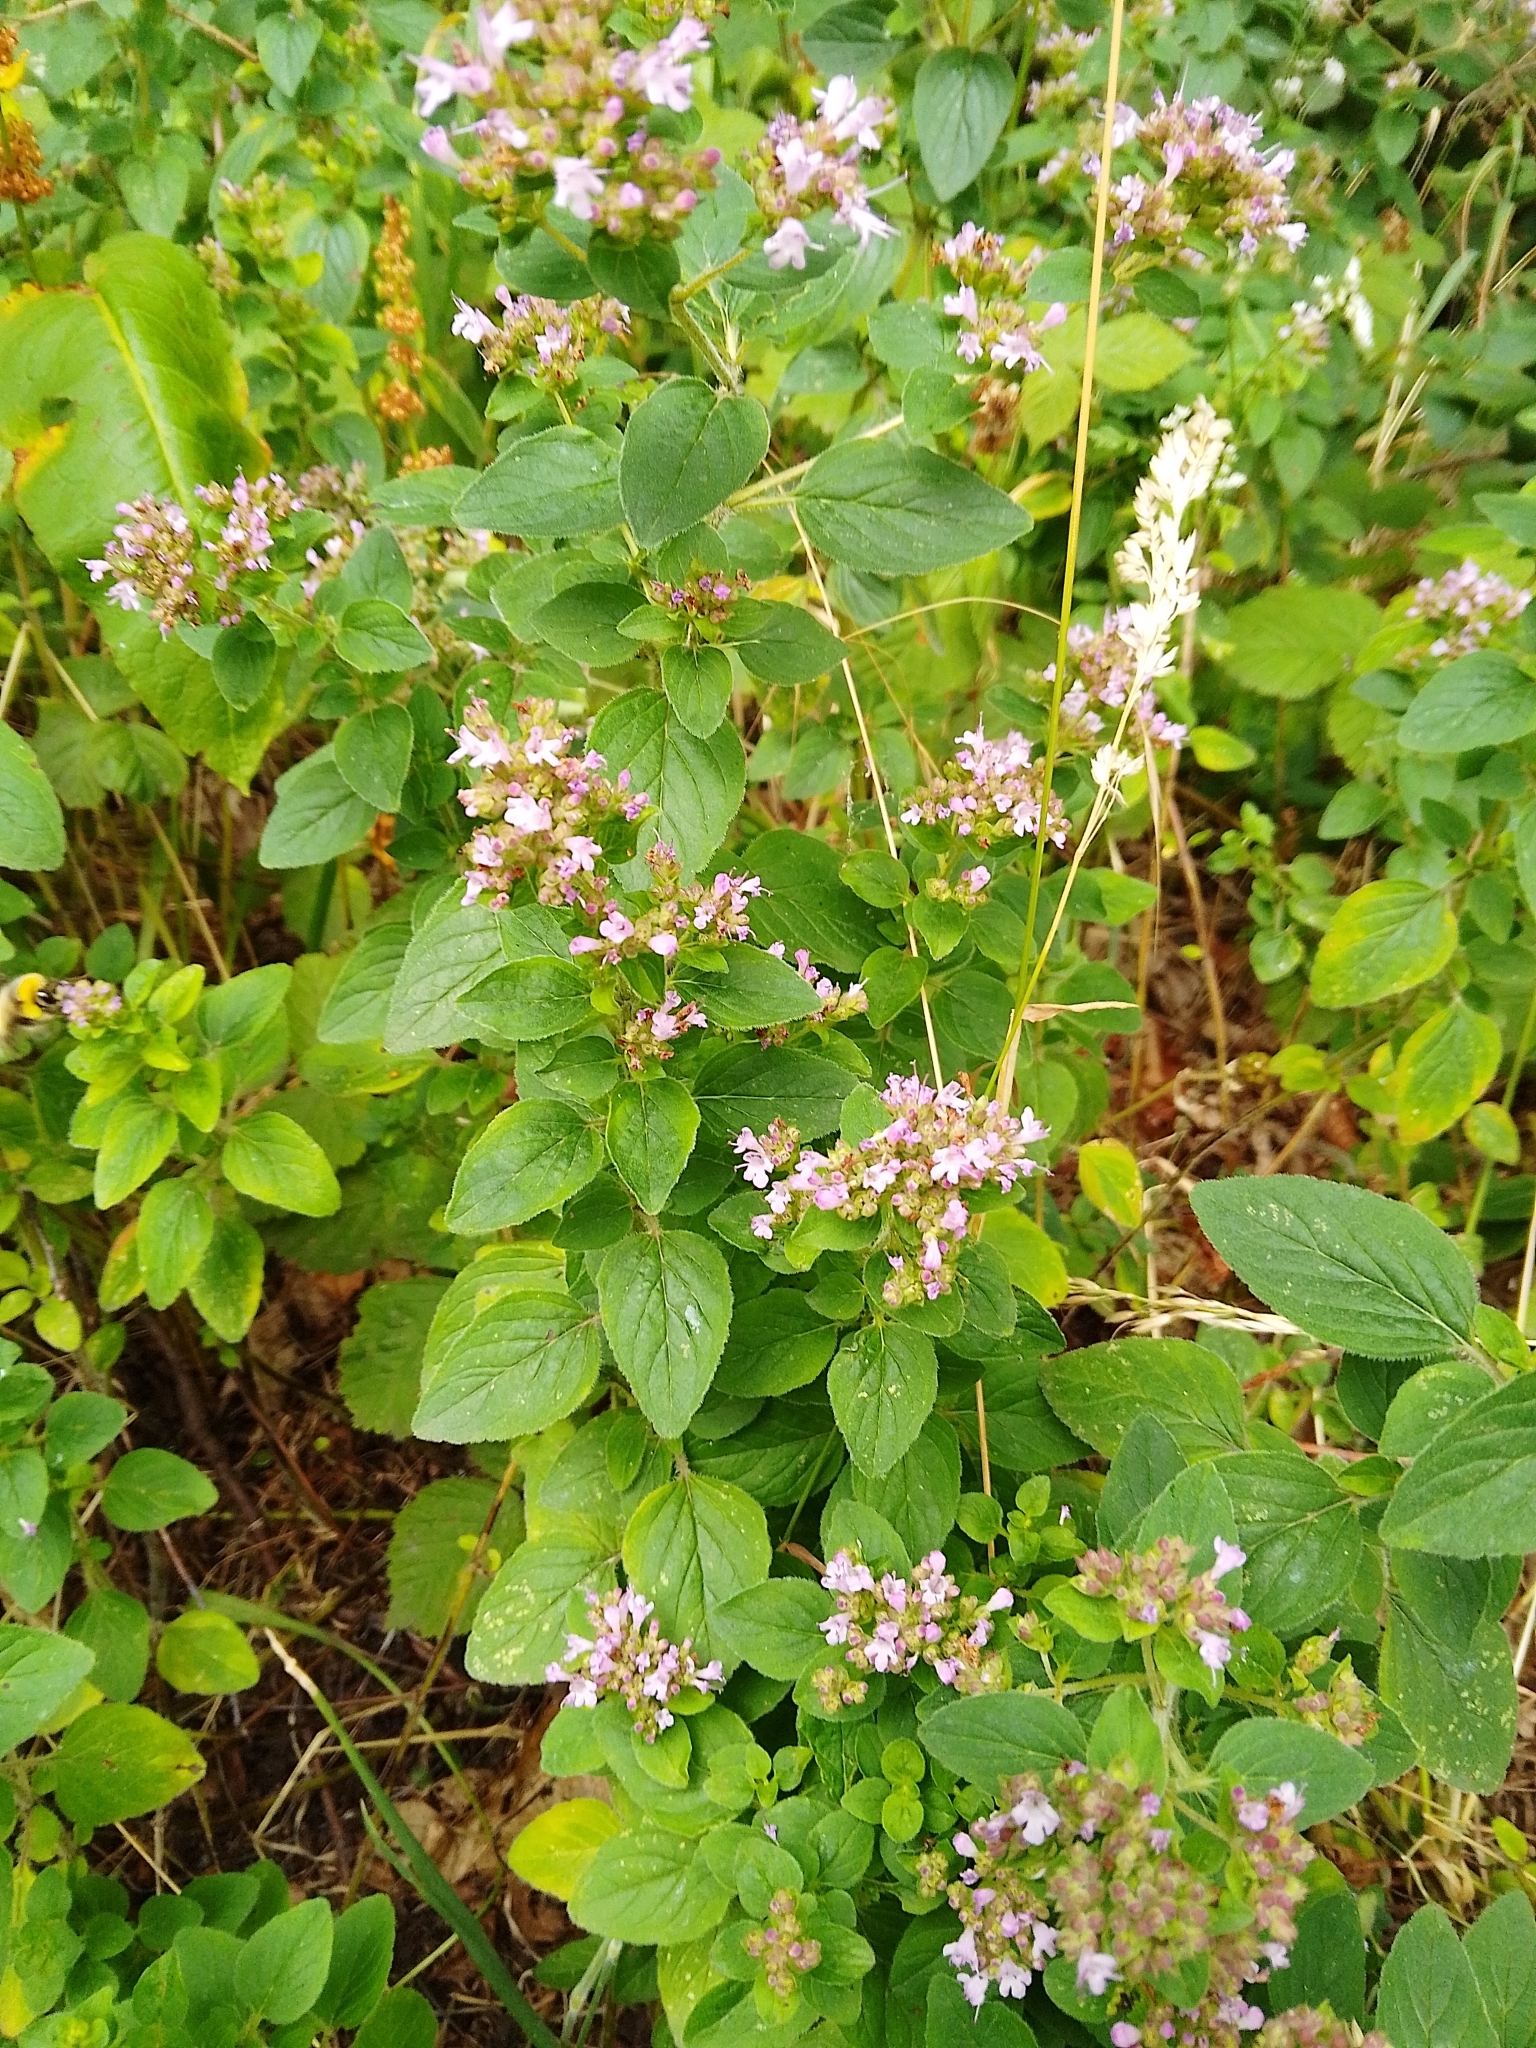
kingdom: Plantae
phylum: Tracheophyta
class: Magnoliopsida
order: Lamiales
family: Lamiaceae
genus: Origanum
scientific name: Origanum vulgare
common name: Wild marjoram
